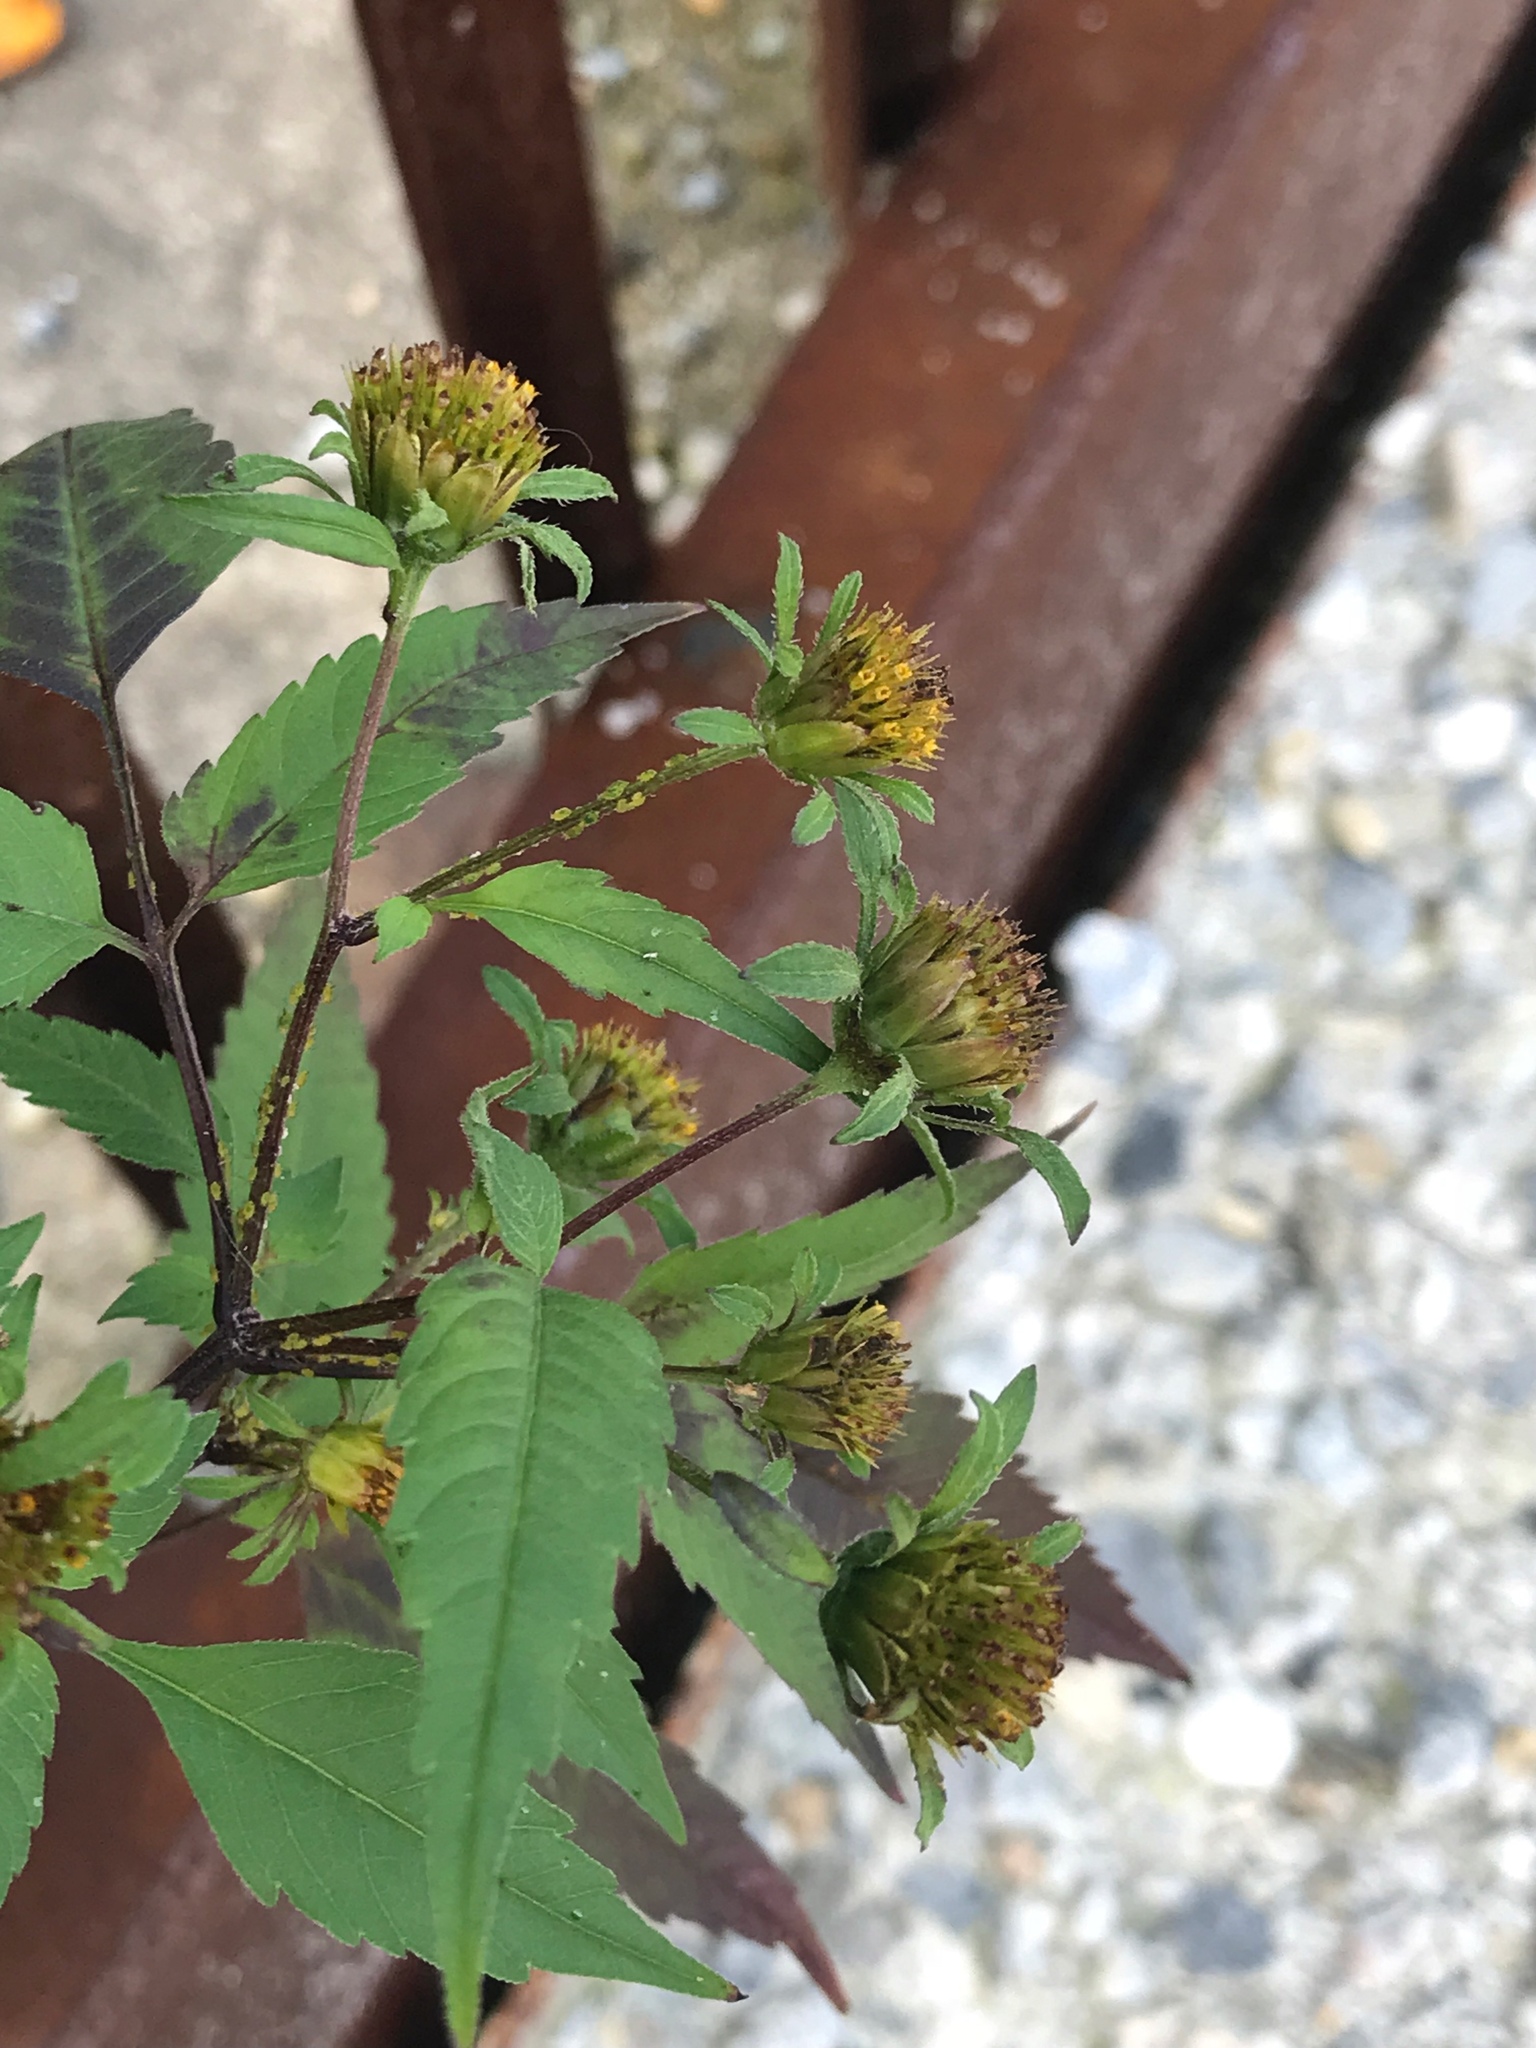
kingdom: Plantae
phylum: Tracheophyta
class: Magnoliopsida
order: Asterales
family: Asteraceae
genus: Bidens
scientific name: Bidens frondosa
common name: Beggarticks
